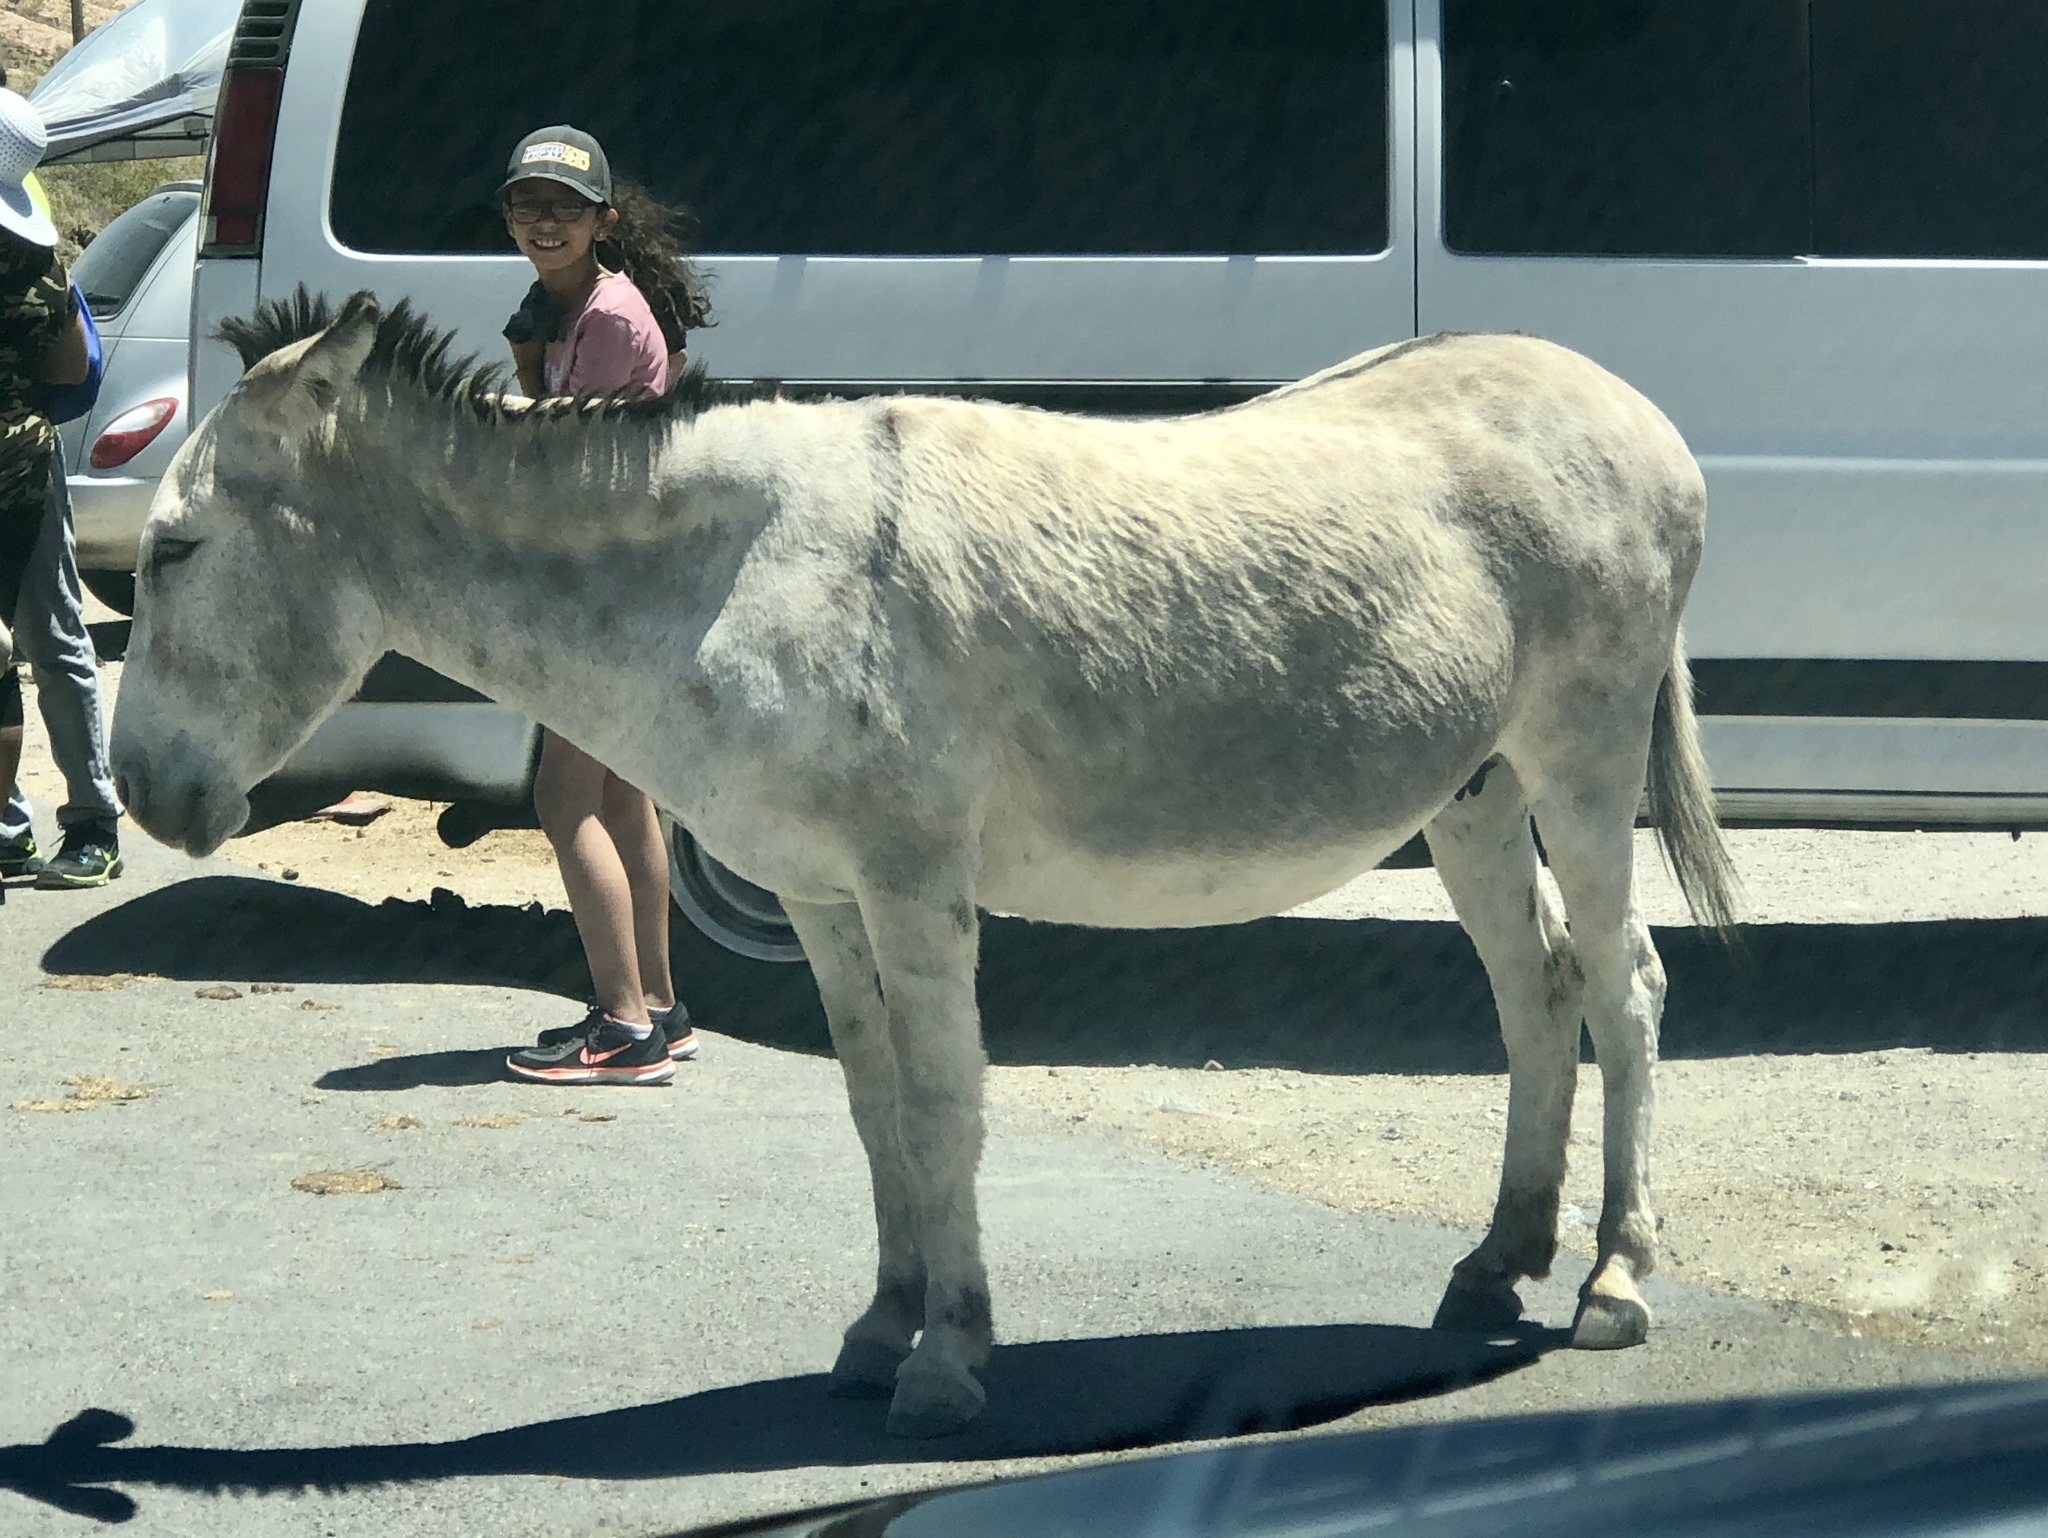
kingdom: Animalia
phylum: Chordata
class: Mammalia
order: Perissodactyla
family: Equidae
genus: Equus
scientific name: Equus asinus
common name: Ass
